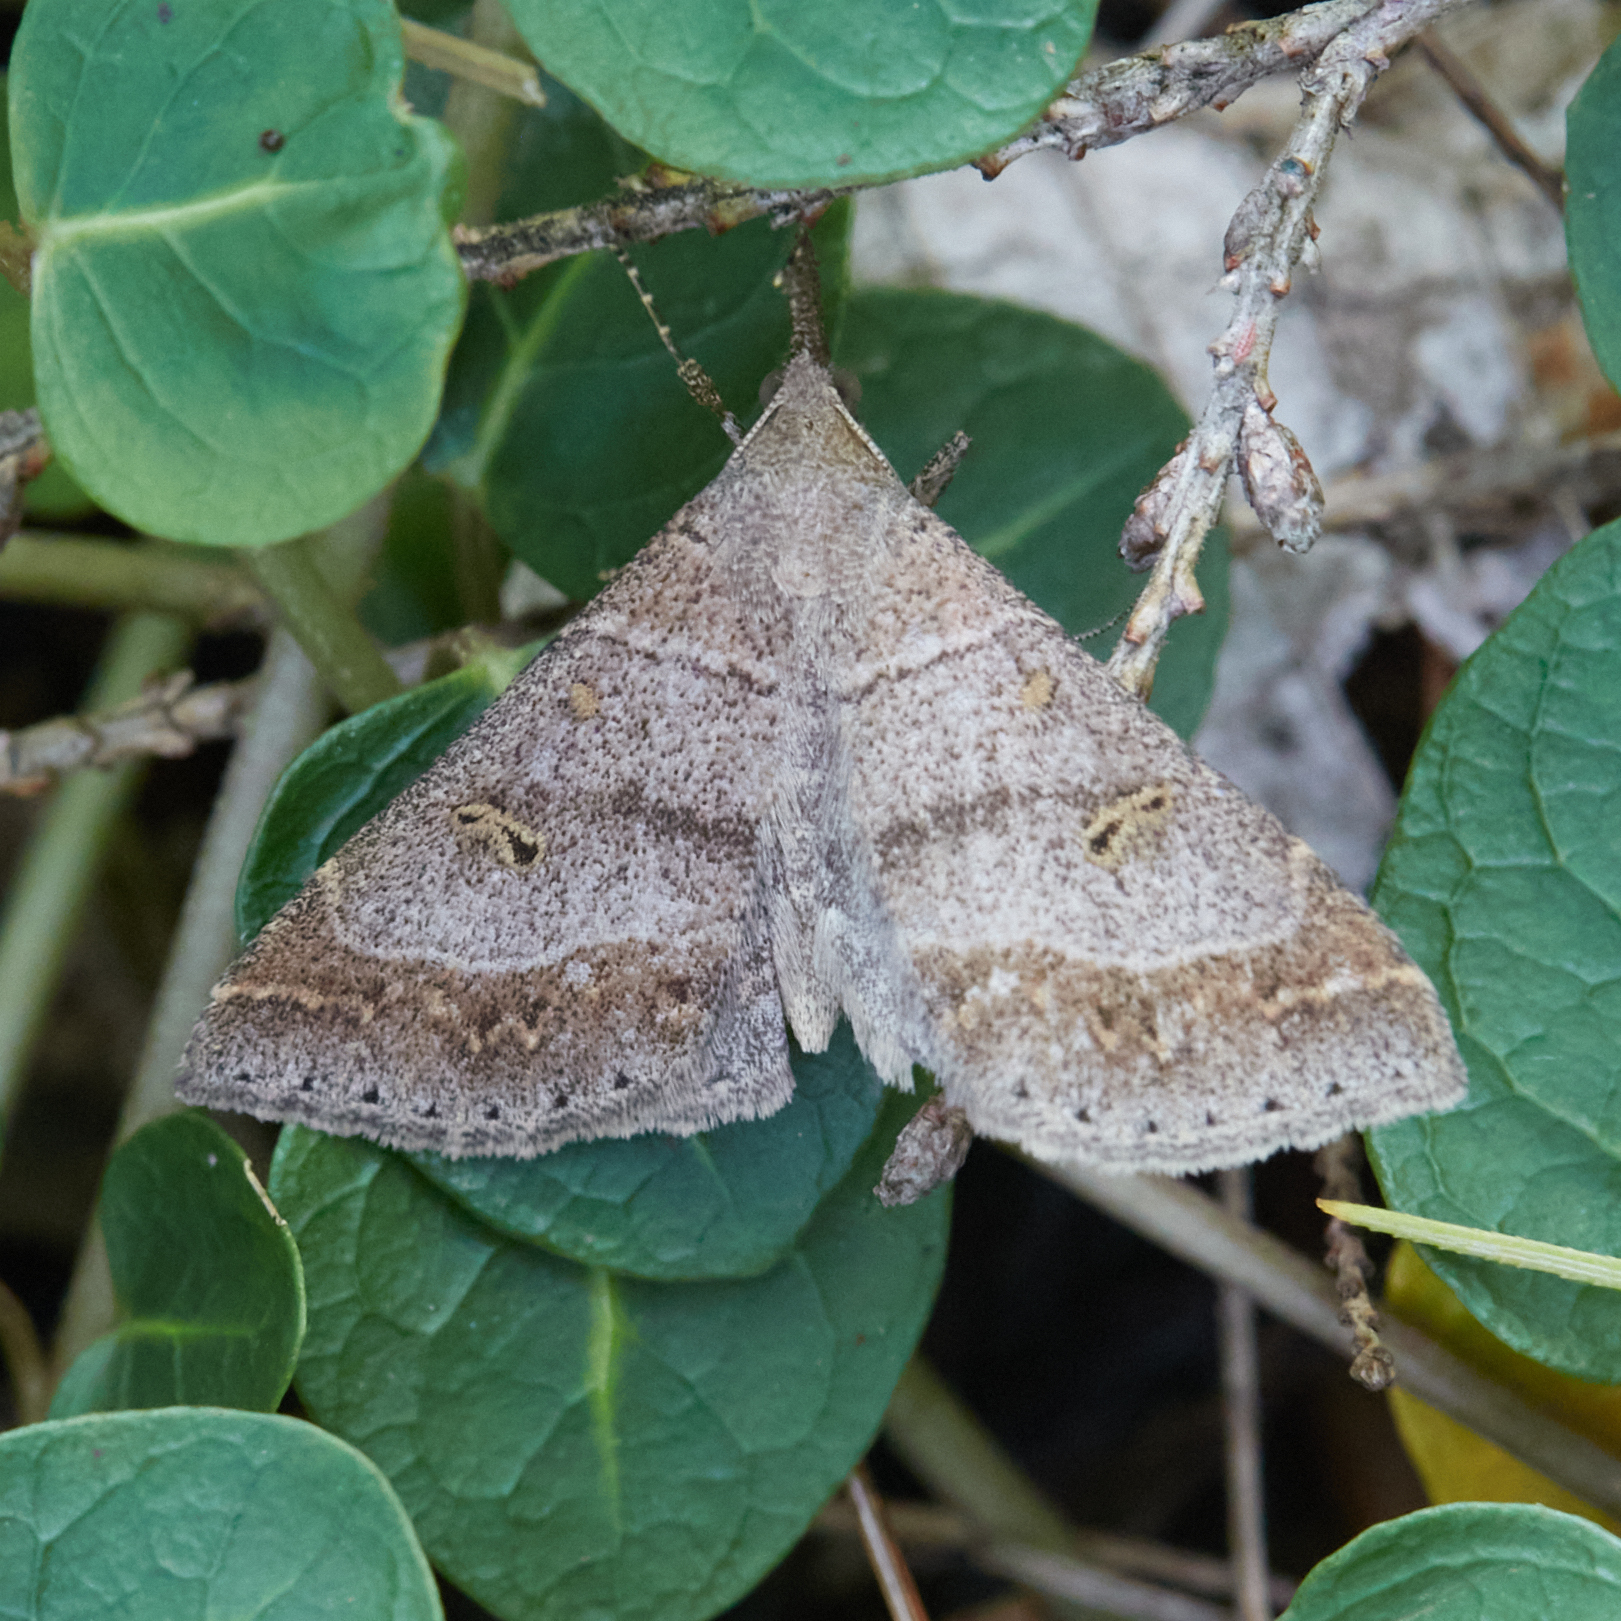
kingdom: Animalia
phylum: Arthropoda
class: Insecta
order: Lepidoptera
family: Erebidae
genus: Renia
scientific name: Renia flavipunctalis
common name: Yellow-spotted renia moth
